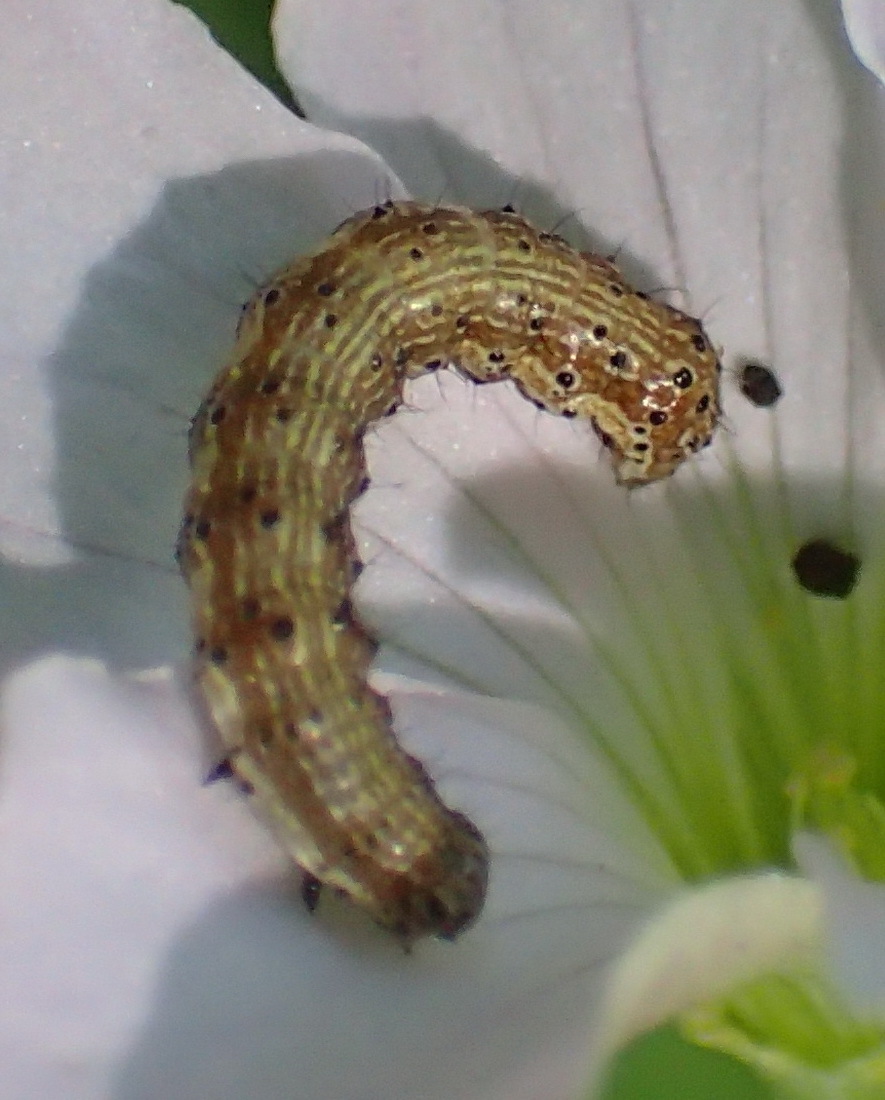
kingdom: Animalia
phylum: Arthropoda
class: Insecta
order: Lepidoptera
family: Noctuidae
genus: Helicoverpa
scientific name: Helicoverpa armigera
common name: Cotton bollworm
